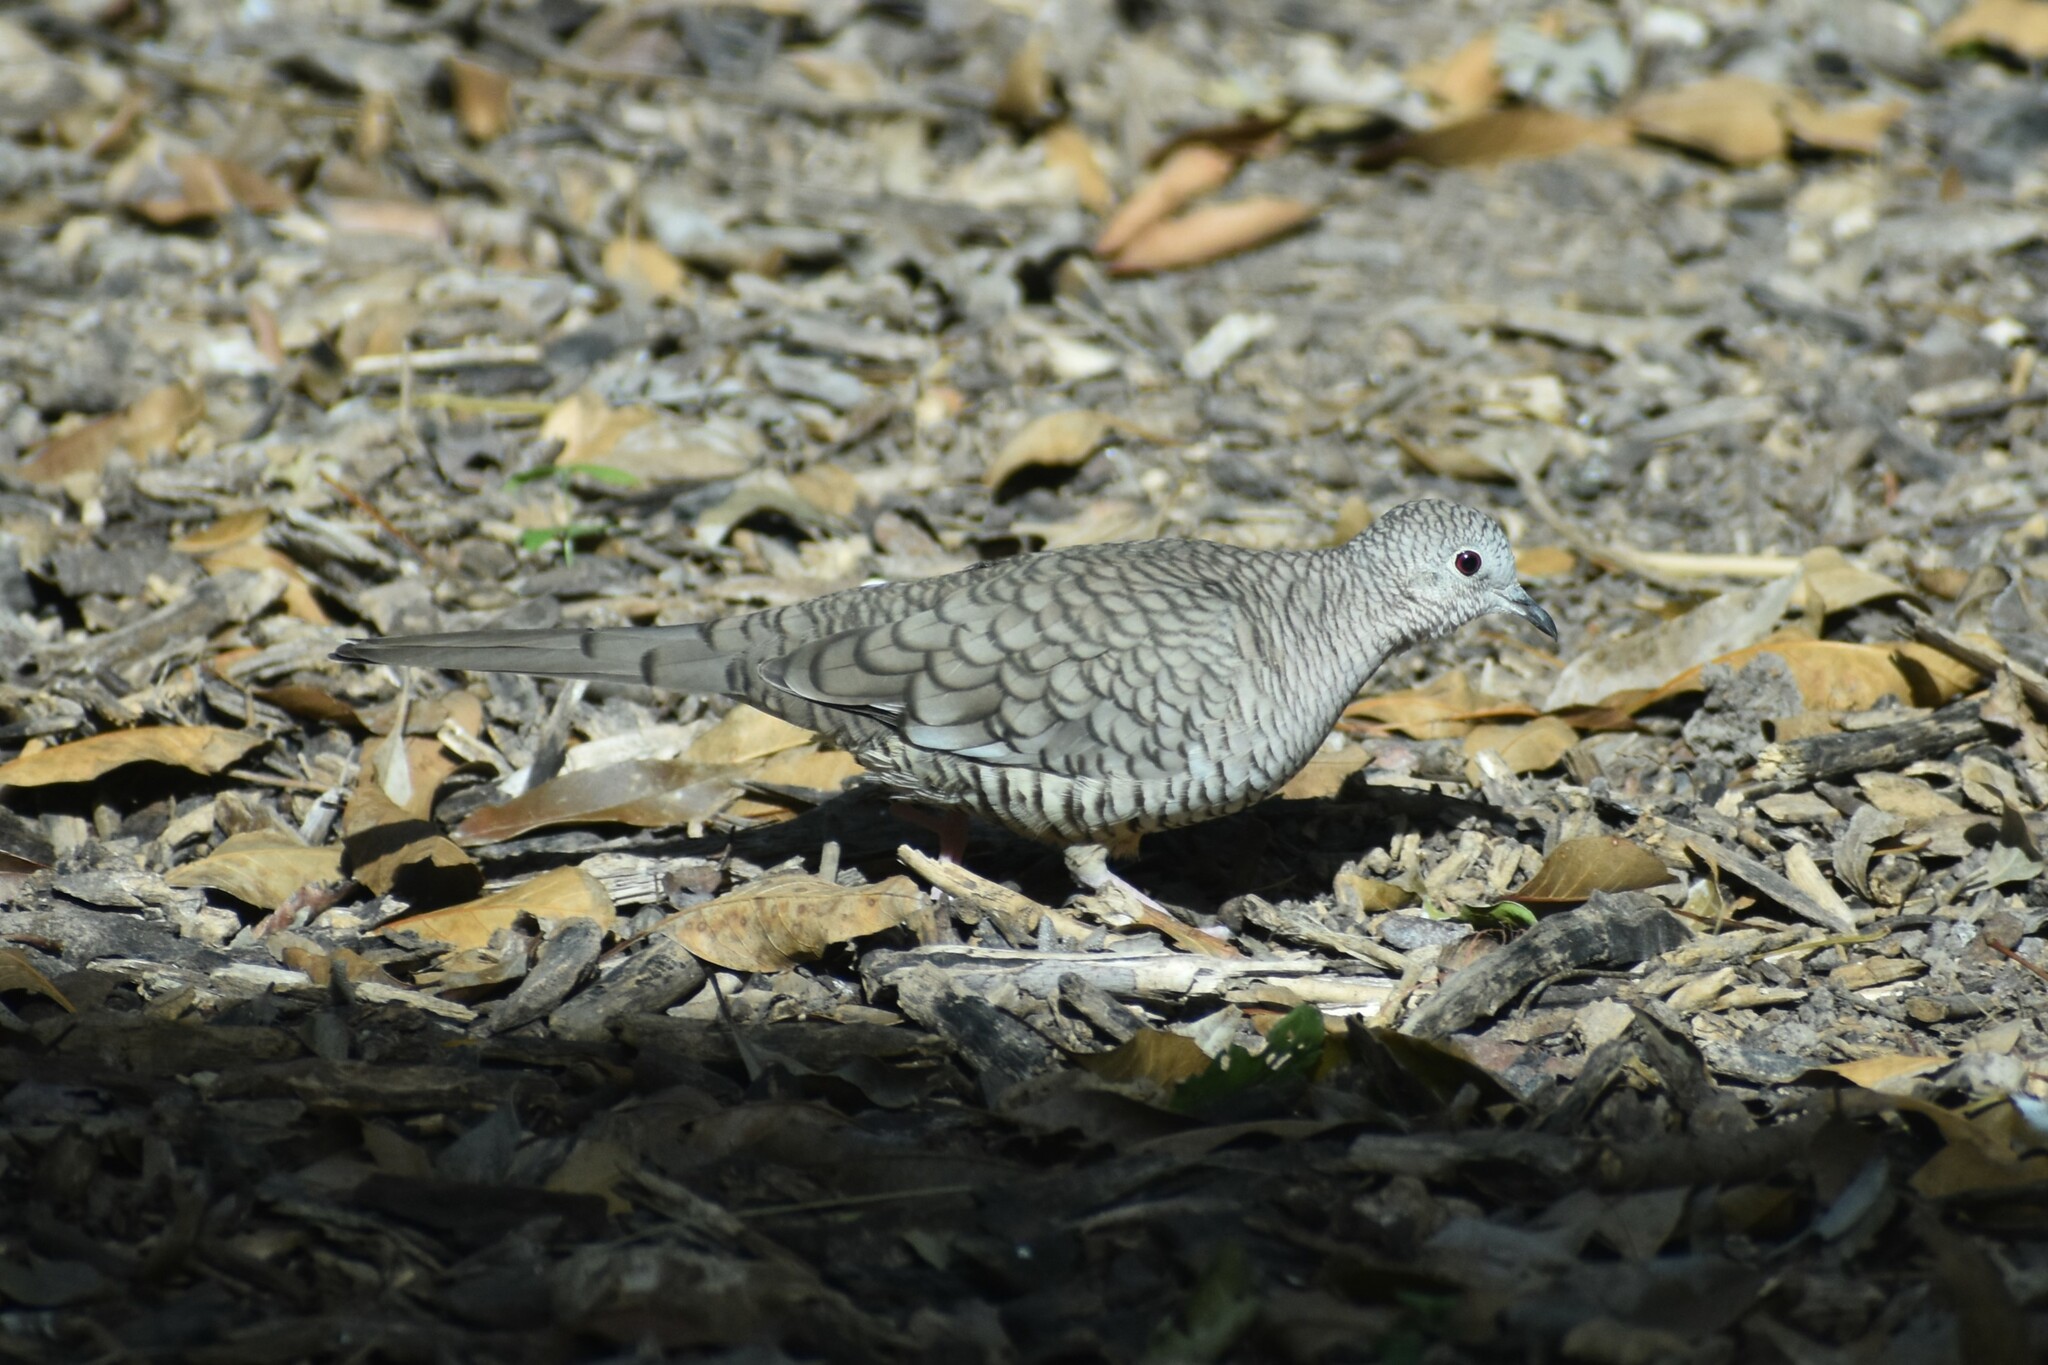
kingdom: Animalia
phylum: Chordata
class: Aves
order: Columbiformes
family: Columbidae
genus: Columbina
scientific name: Columbina inca
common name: Inca dove
